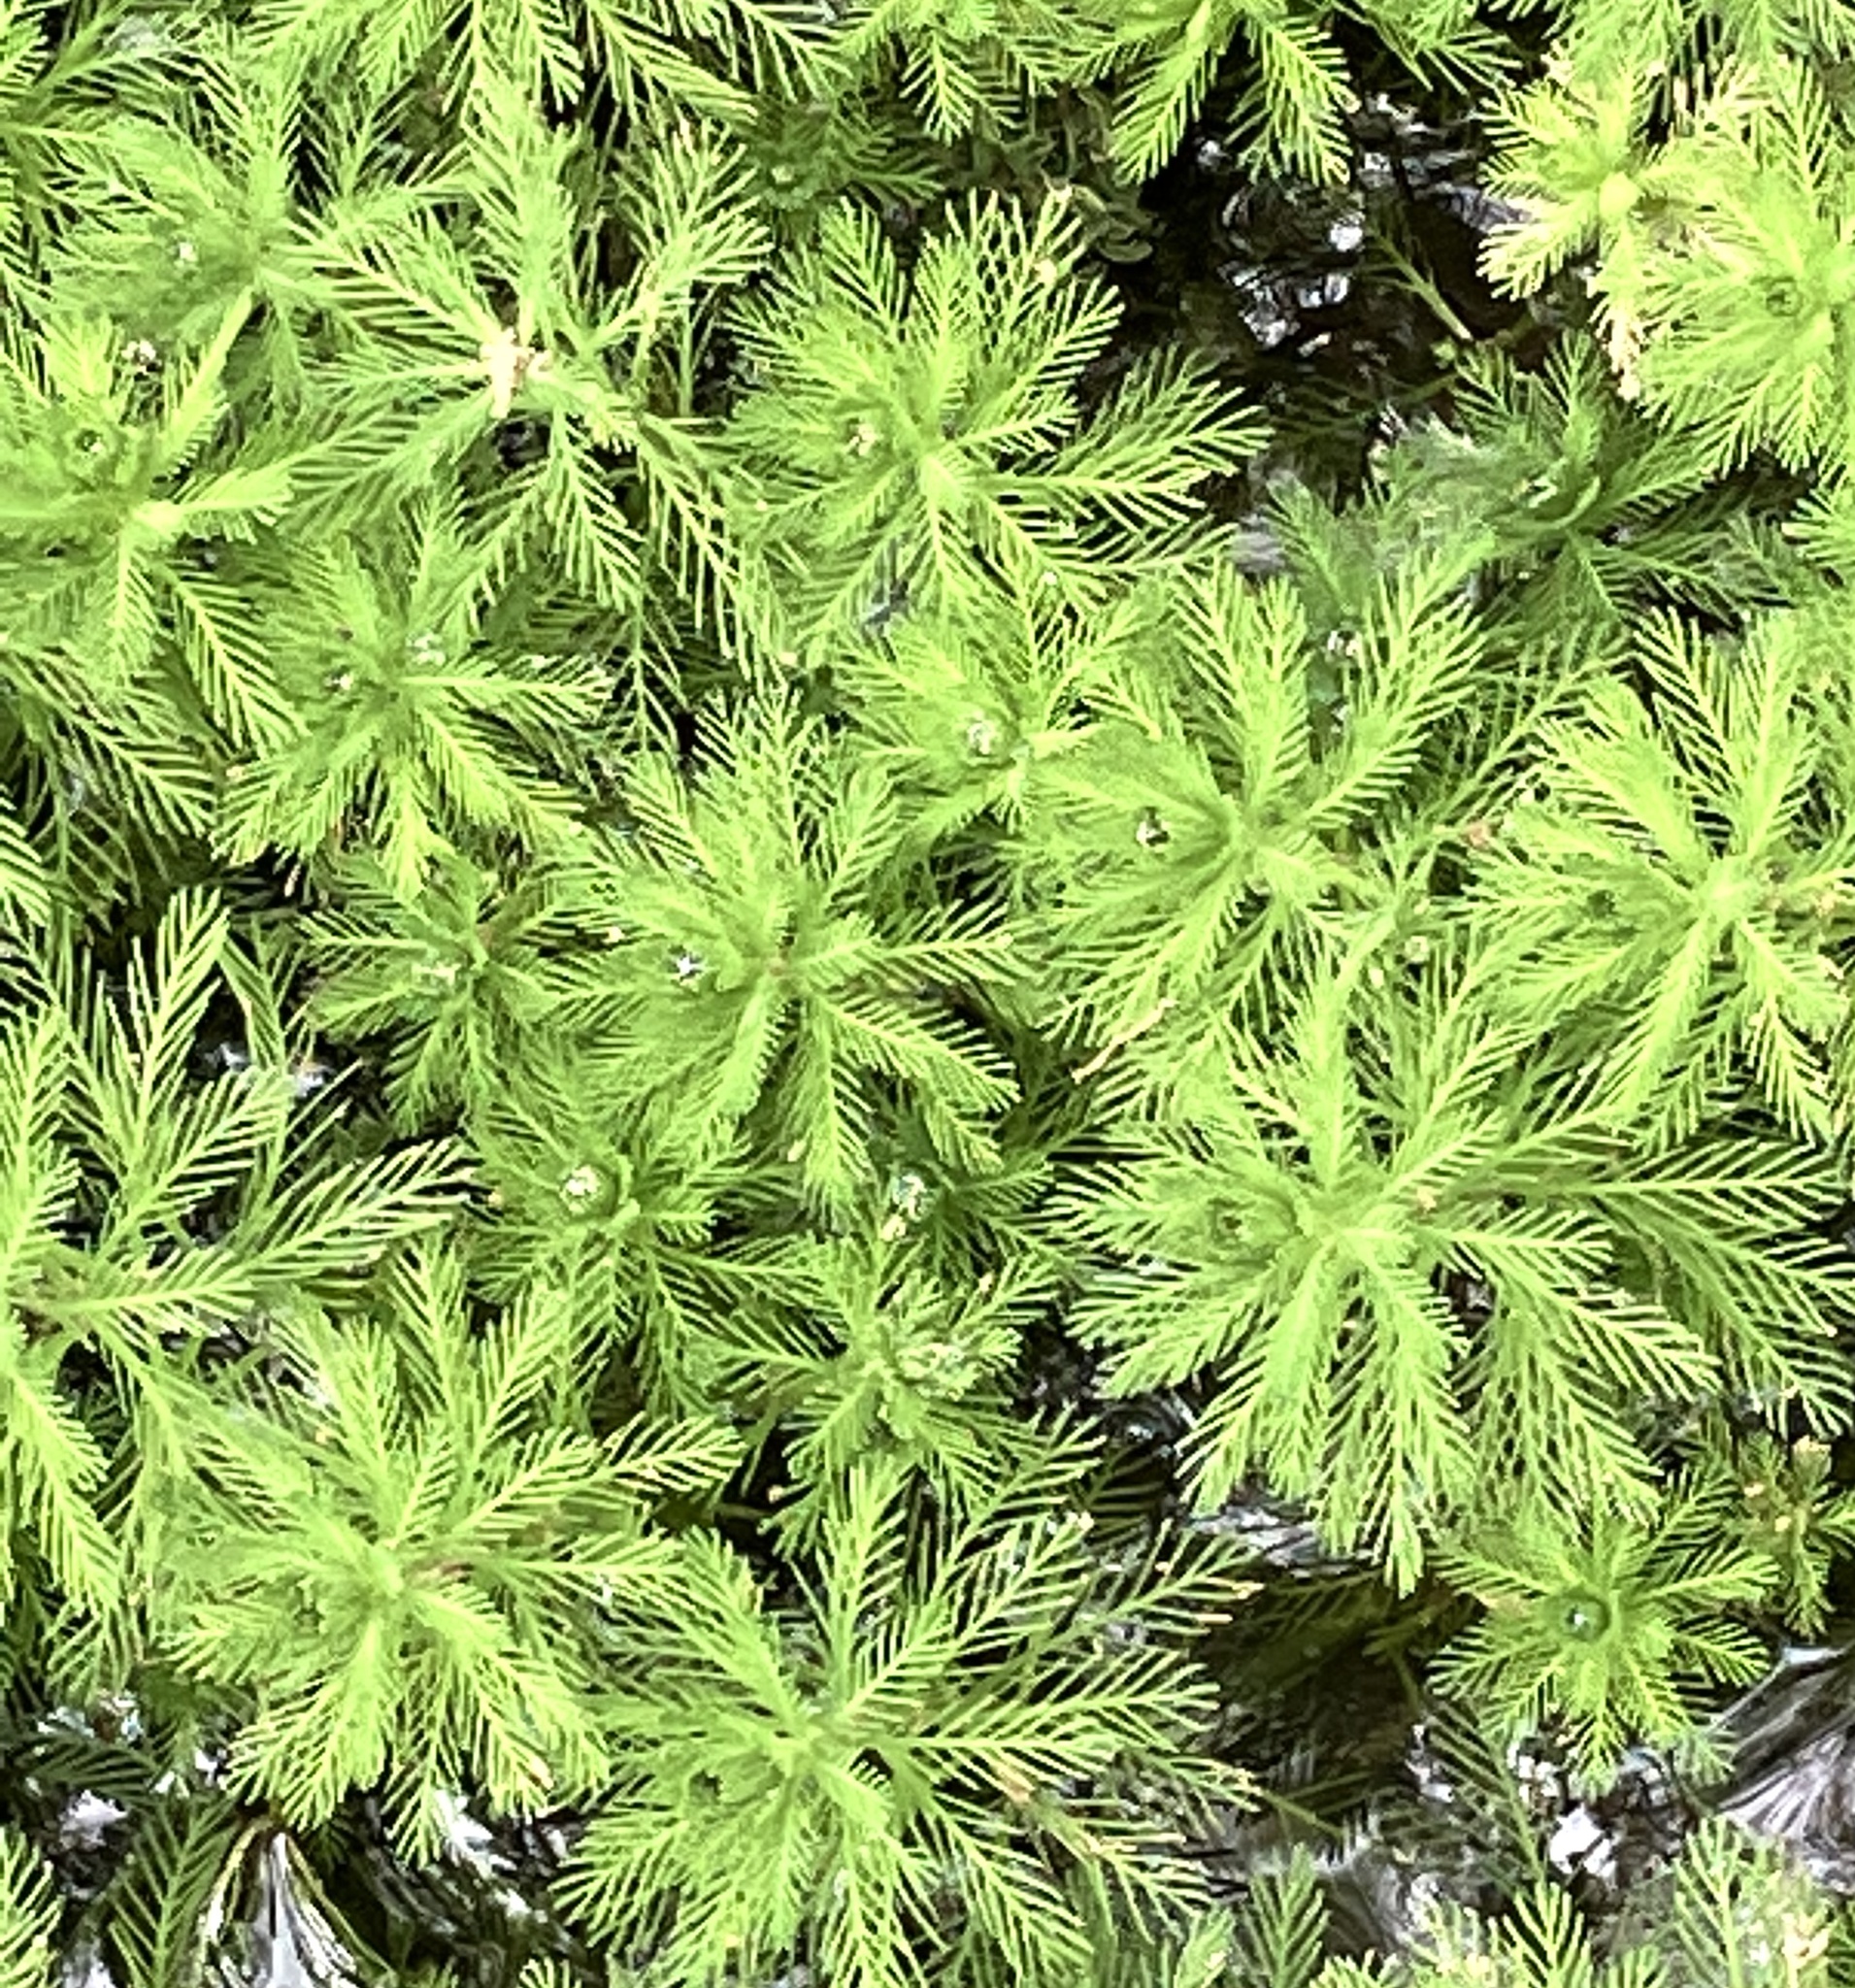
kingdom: Plantae
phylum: Tracheophyta
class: Magnoliopsida
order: Saxifragales
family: Haloragaceae
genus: Myriophyllum
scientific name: Myriophyllum aquaticum
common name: Parrot's feather
